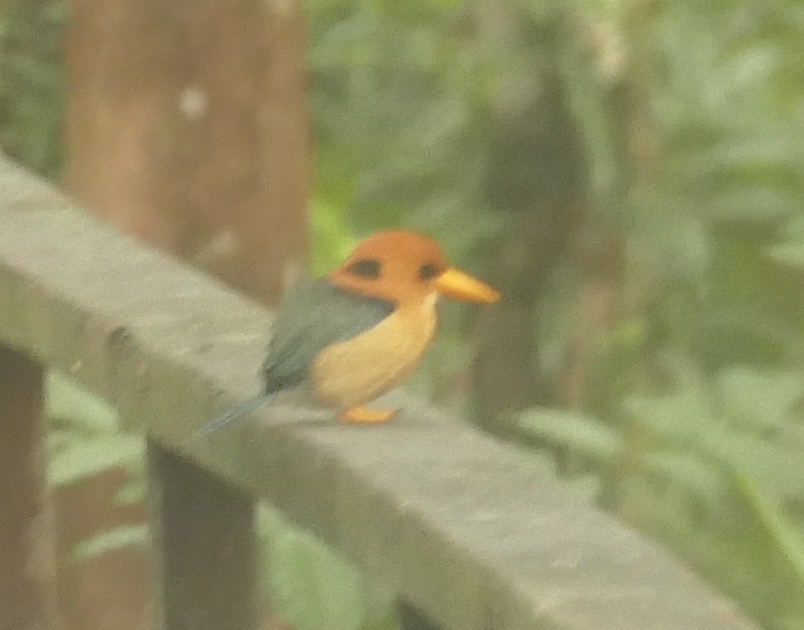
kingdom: Animalia
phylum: Chordata
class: Aves
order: Coraciiformes
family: Alcedinidae
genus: Syma
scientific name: Syma torotoro
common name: Yellow-billed kingfisher
